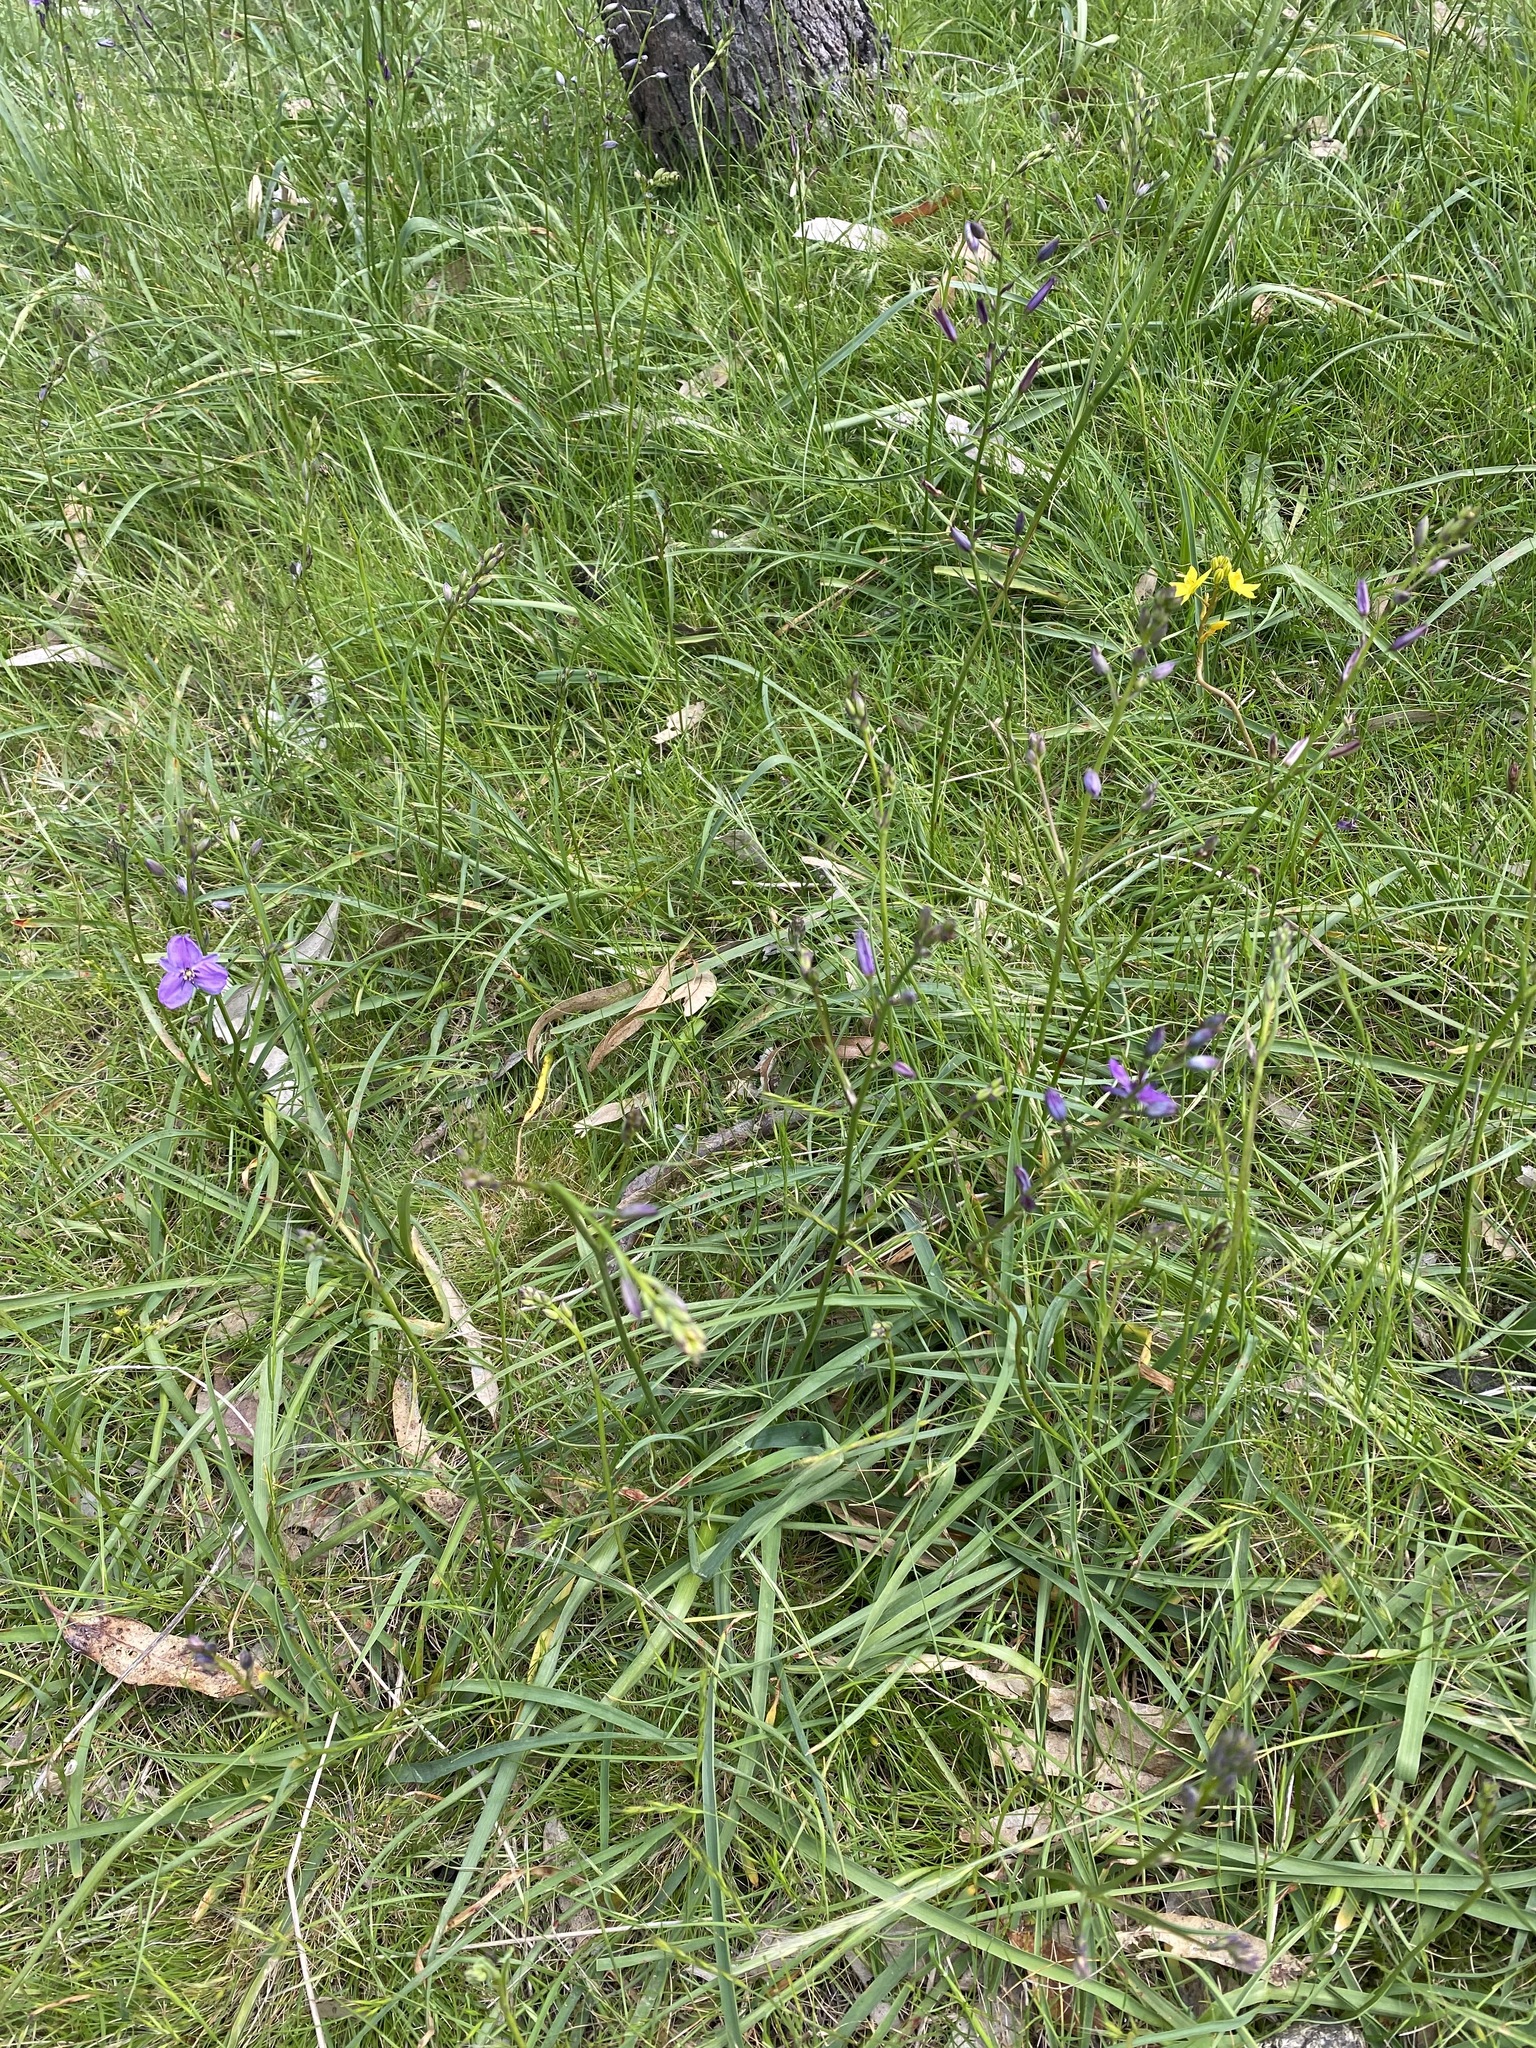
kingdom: Plantae
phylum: Tracheophyta
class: Liliopsida
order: Asparagales
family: Asparagaceae
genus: Arthropodium
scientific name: Arthropodium strictum
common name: Chocolate-lily
